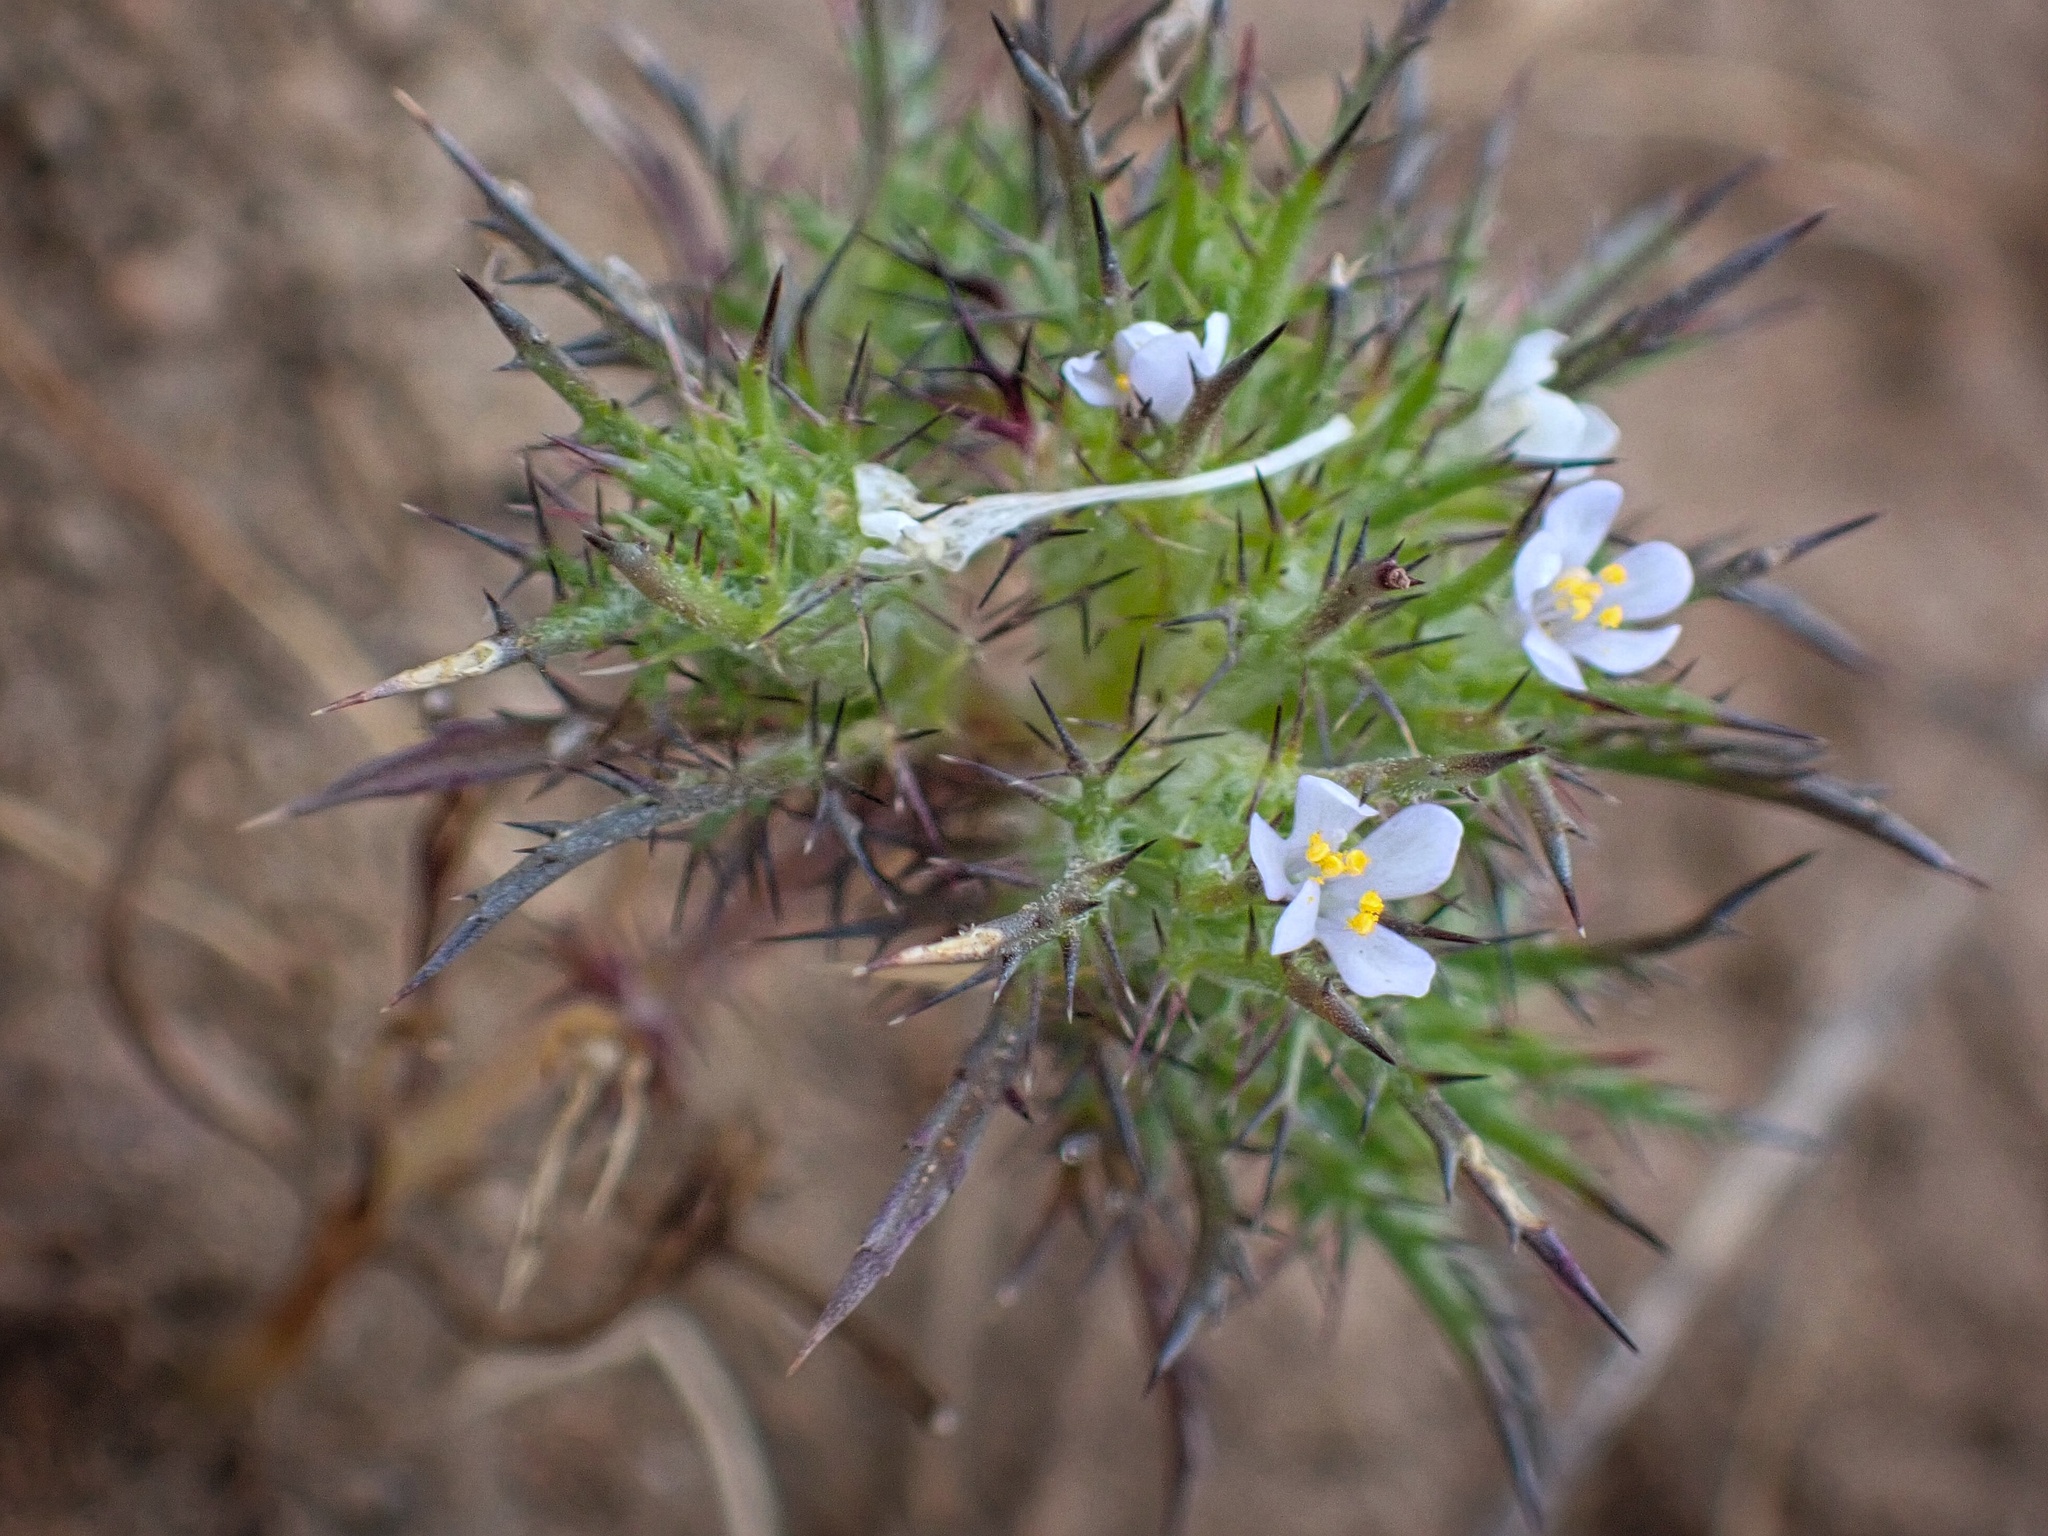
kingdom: Plantae
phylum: Tracheophyta
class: Magnoliopsida
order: Ericales
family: Polemoniaceae
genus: Navarretia
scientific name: Navarretia tagetina
